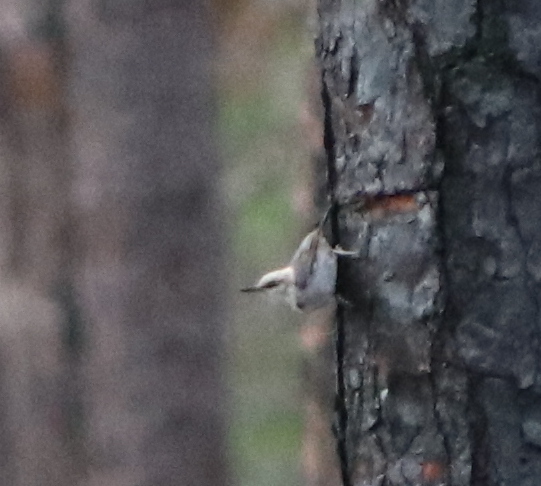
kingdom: Animalia
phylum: Chordata
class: Aves
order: Passeriformes
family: Sittidae
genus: Sitta
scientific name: Sitta pusilla
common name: Brown-headed nuthatch
